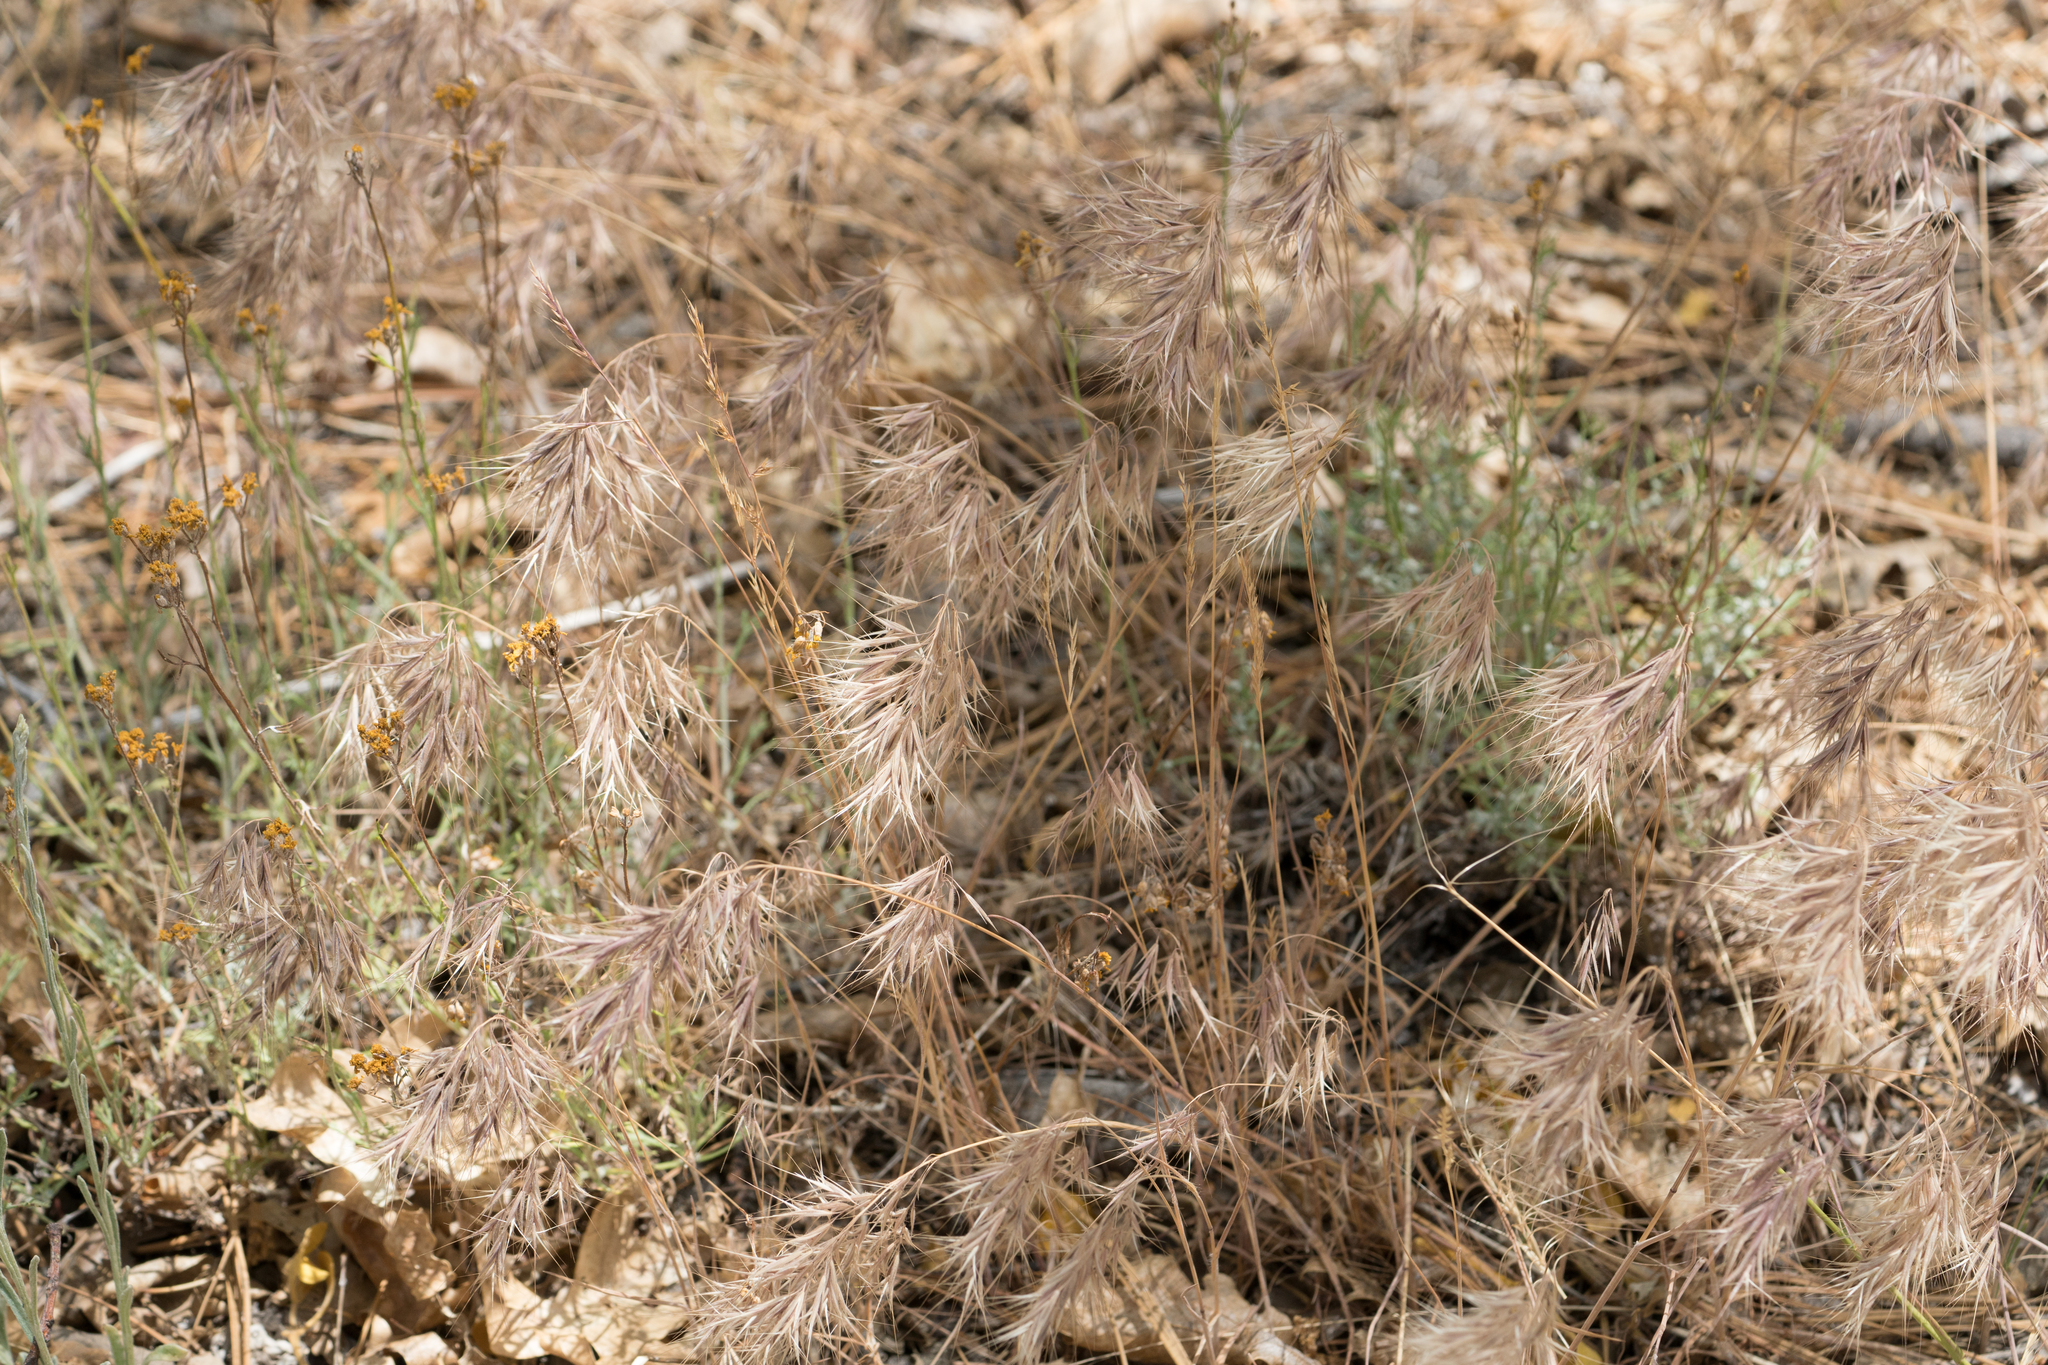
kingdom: Plantae
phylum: Tracheophyta
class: Liliopsida
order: Poales
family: Poaceae
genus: Bromus
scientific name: Bromus tectorum
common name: Cheatgrass
